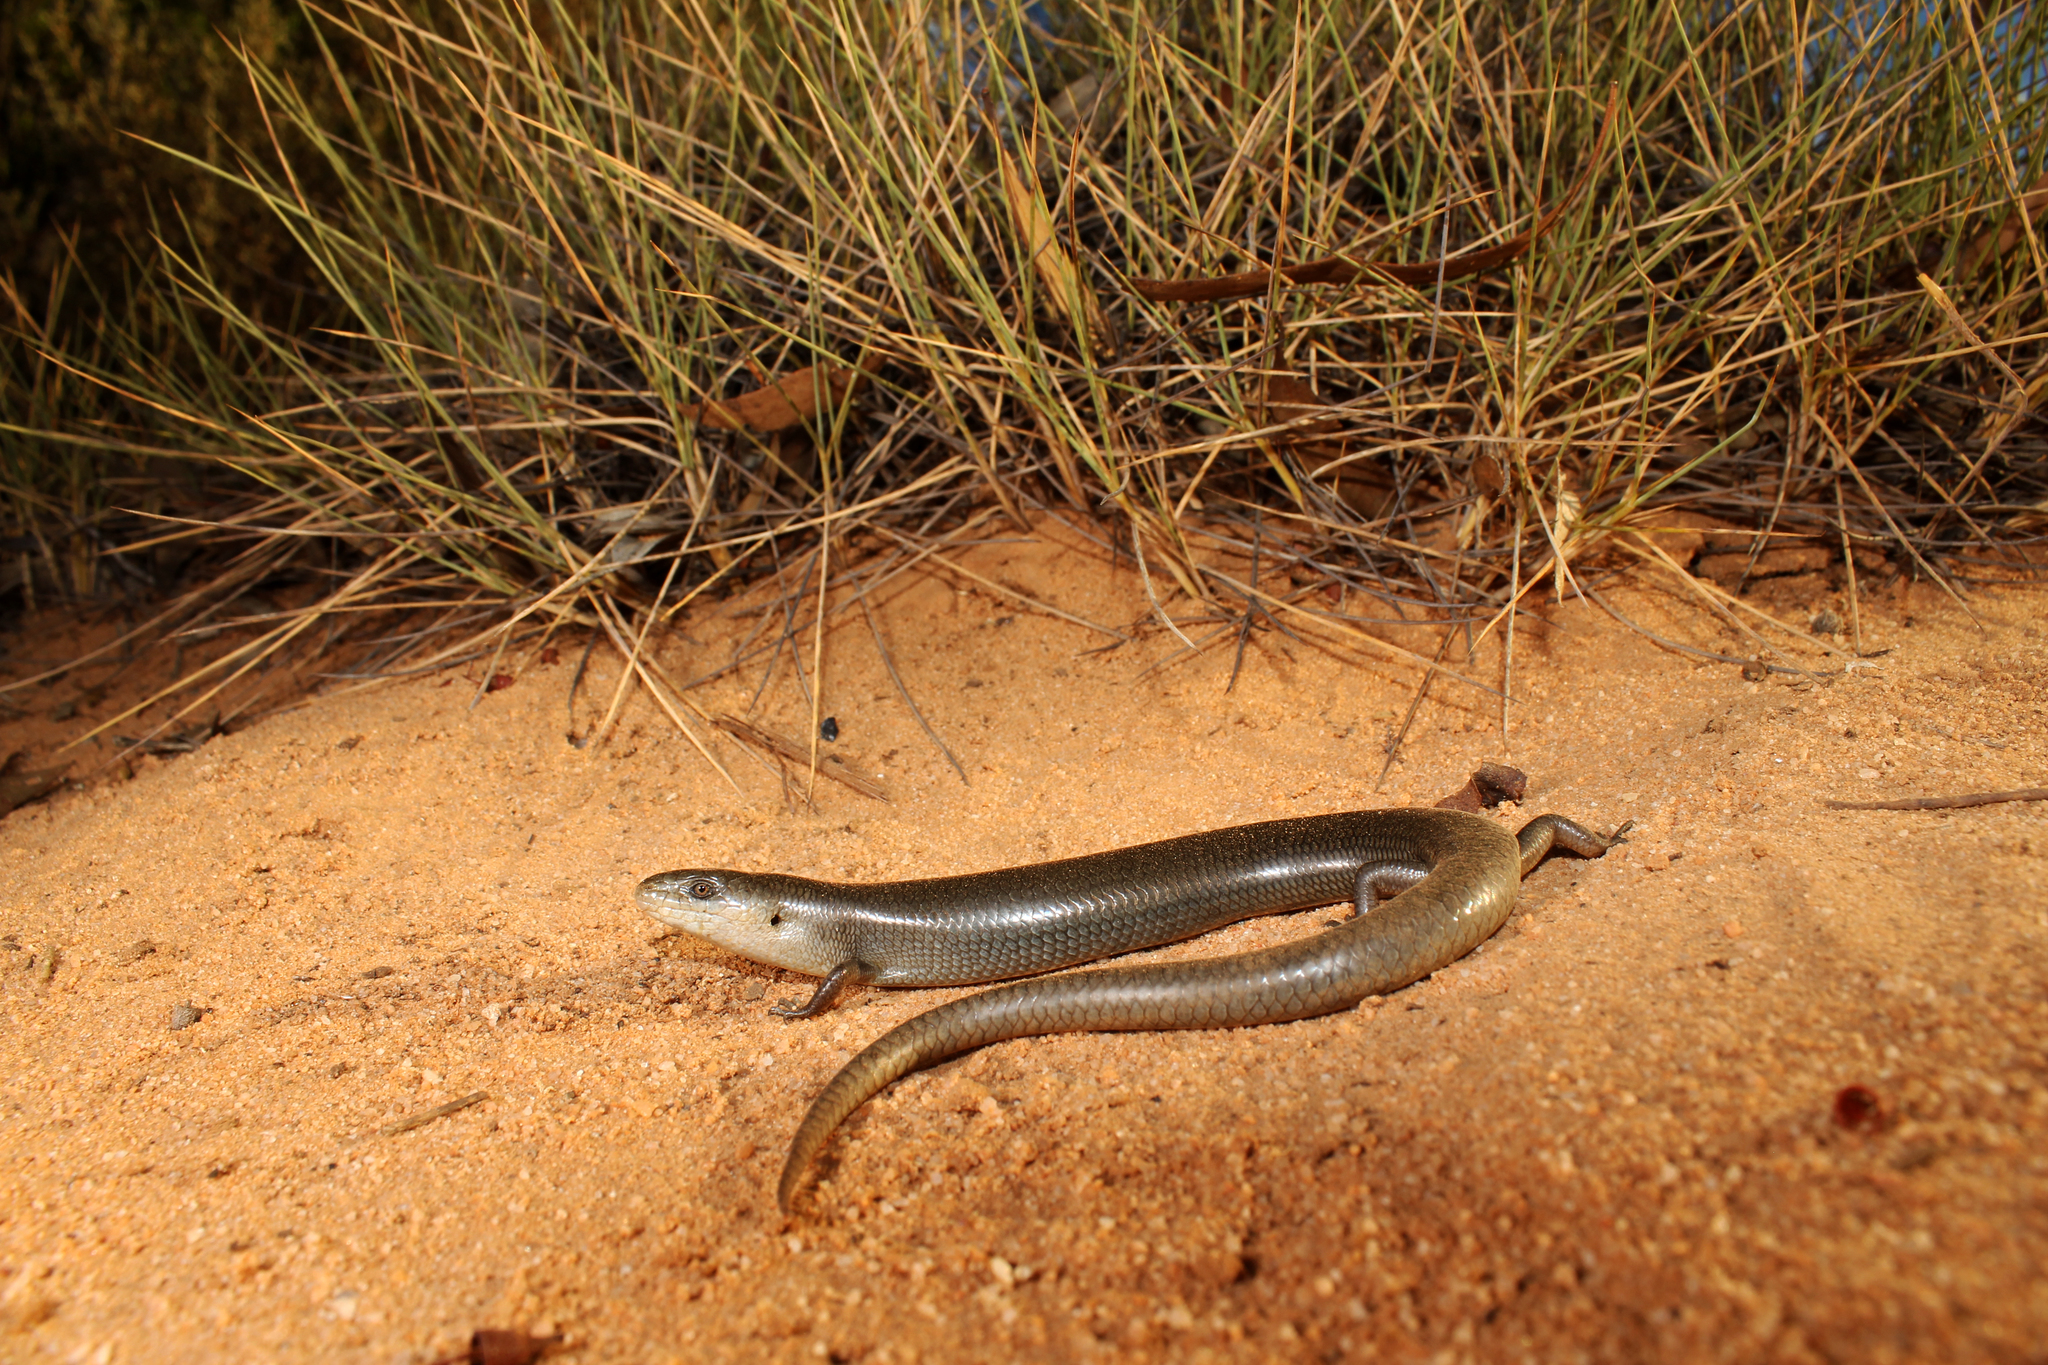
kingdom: Animalia
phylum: Chordata
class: Squamata
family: Scincidae
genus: Cyclodomorphus
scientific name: Cyclodomorphus melanops
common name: Samphire slender bluetongue
